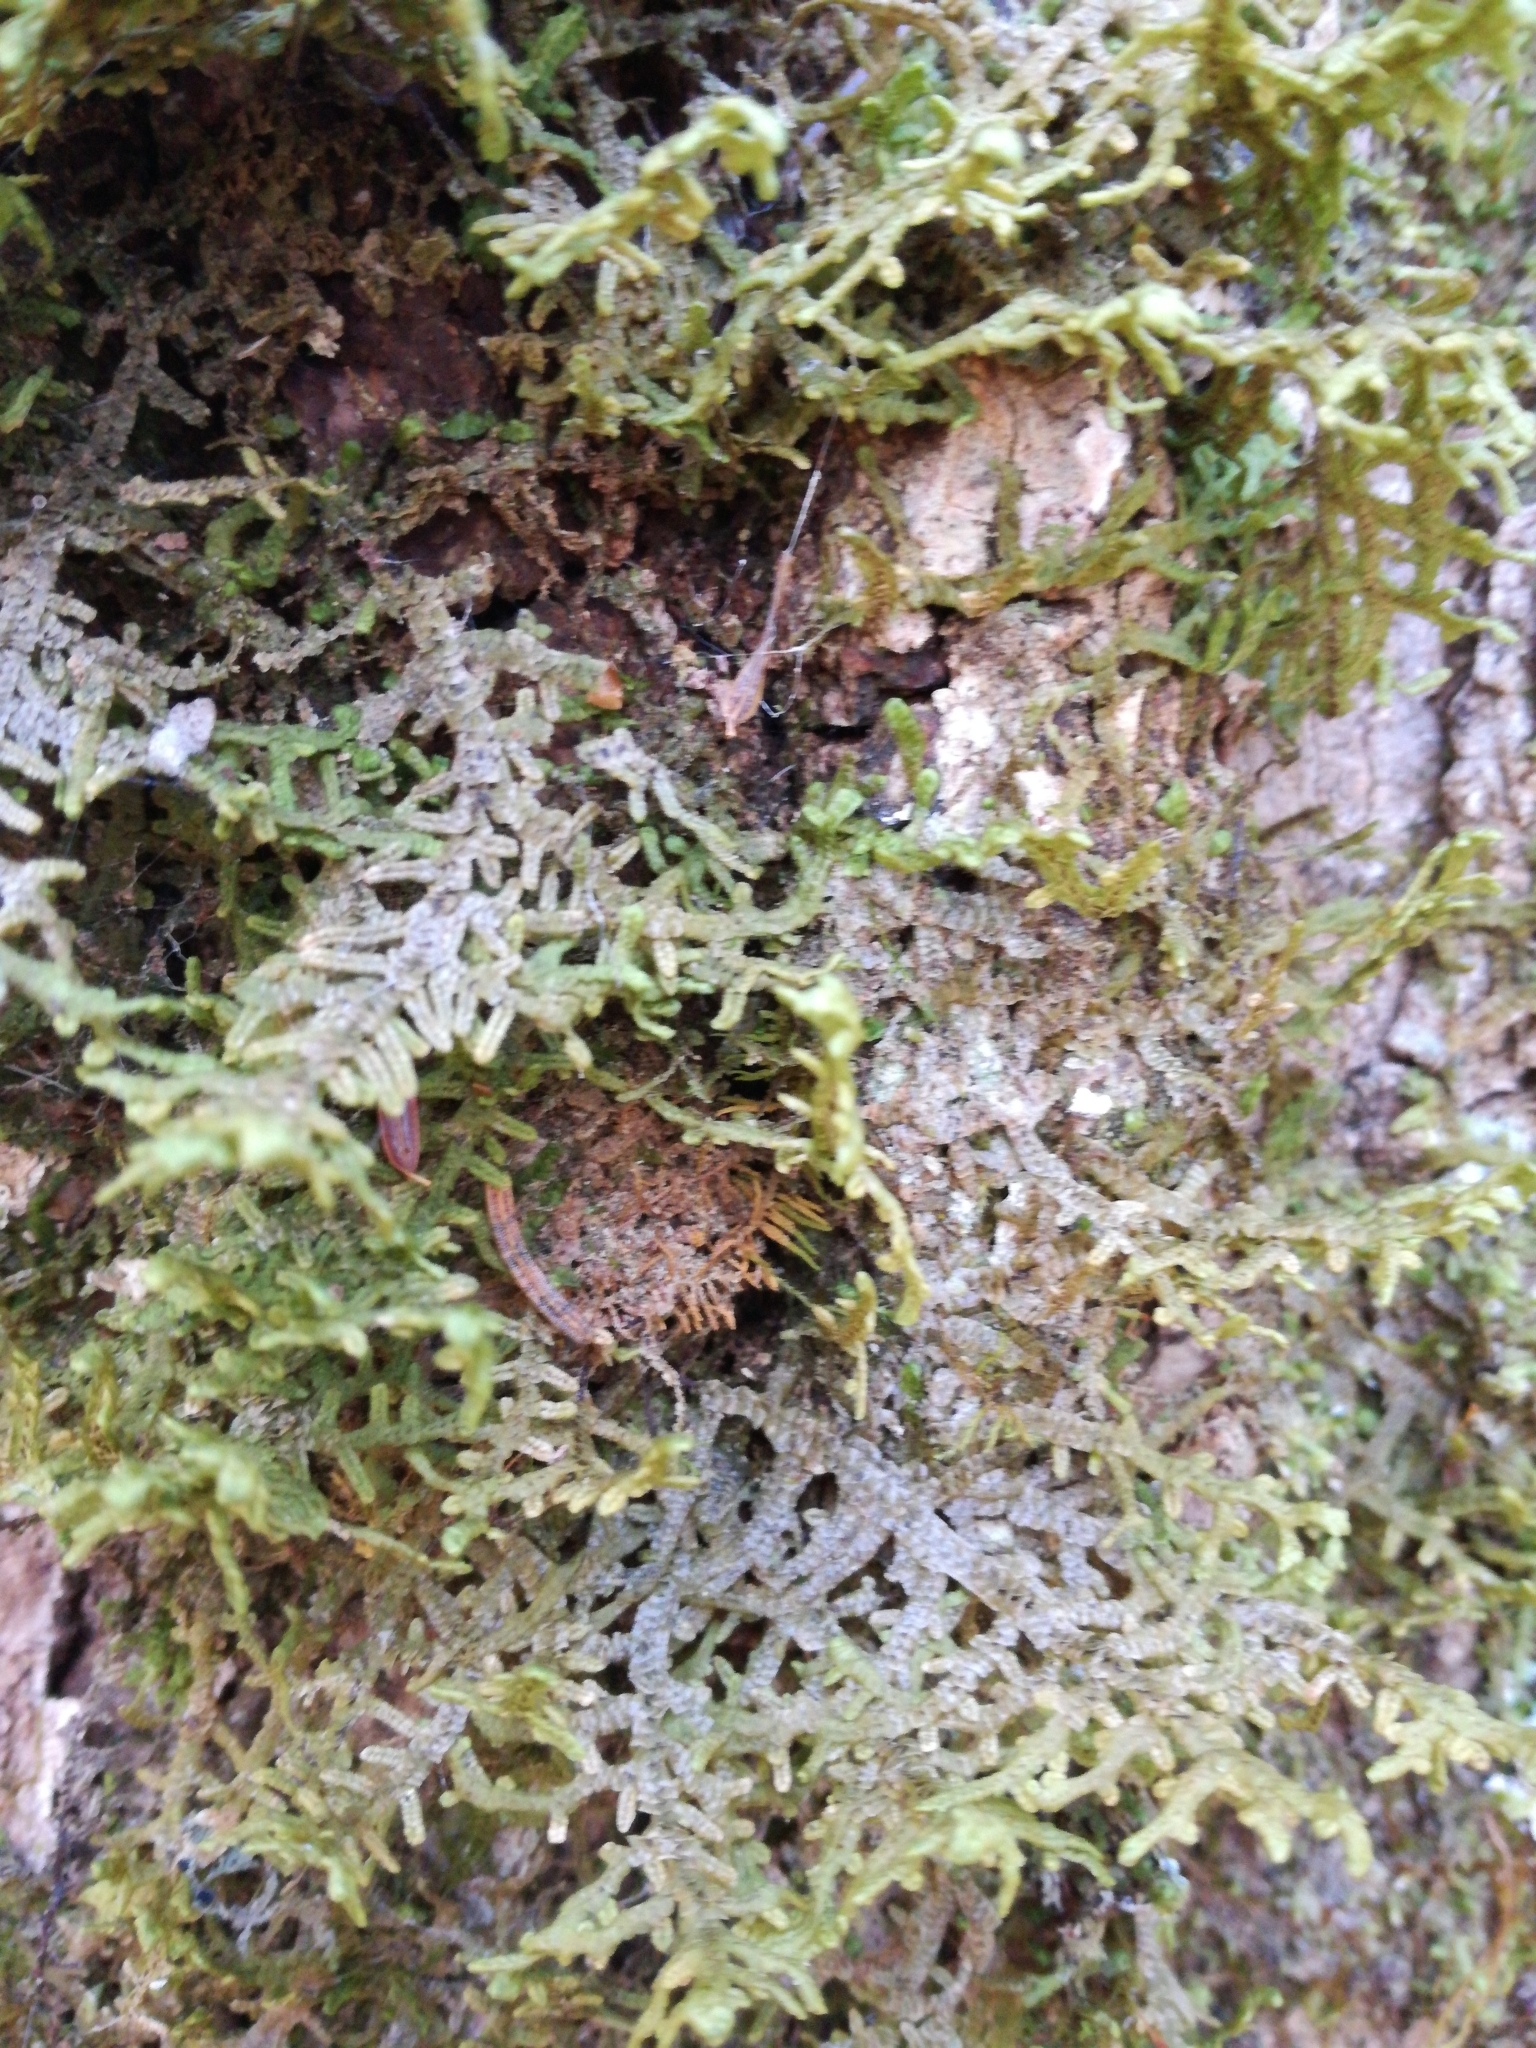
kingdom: Plantae
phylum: Marchantiophyta
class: Jungermanniopsida
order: Porellales
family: Porellaceae
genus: Porella
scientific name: Porella platyphylla
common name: Wall scalewort
